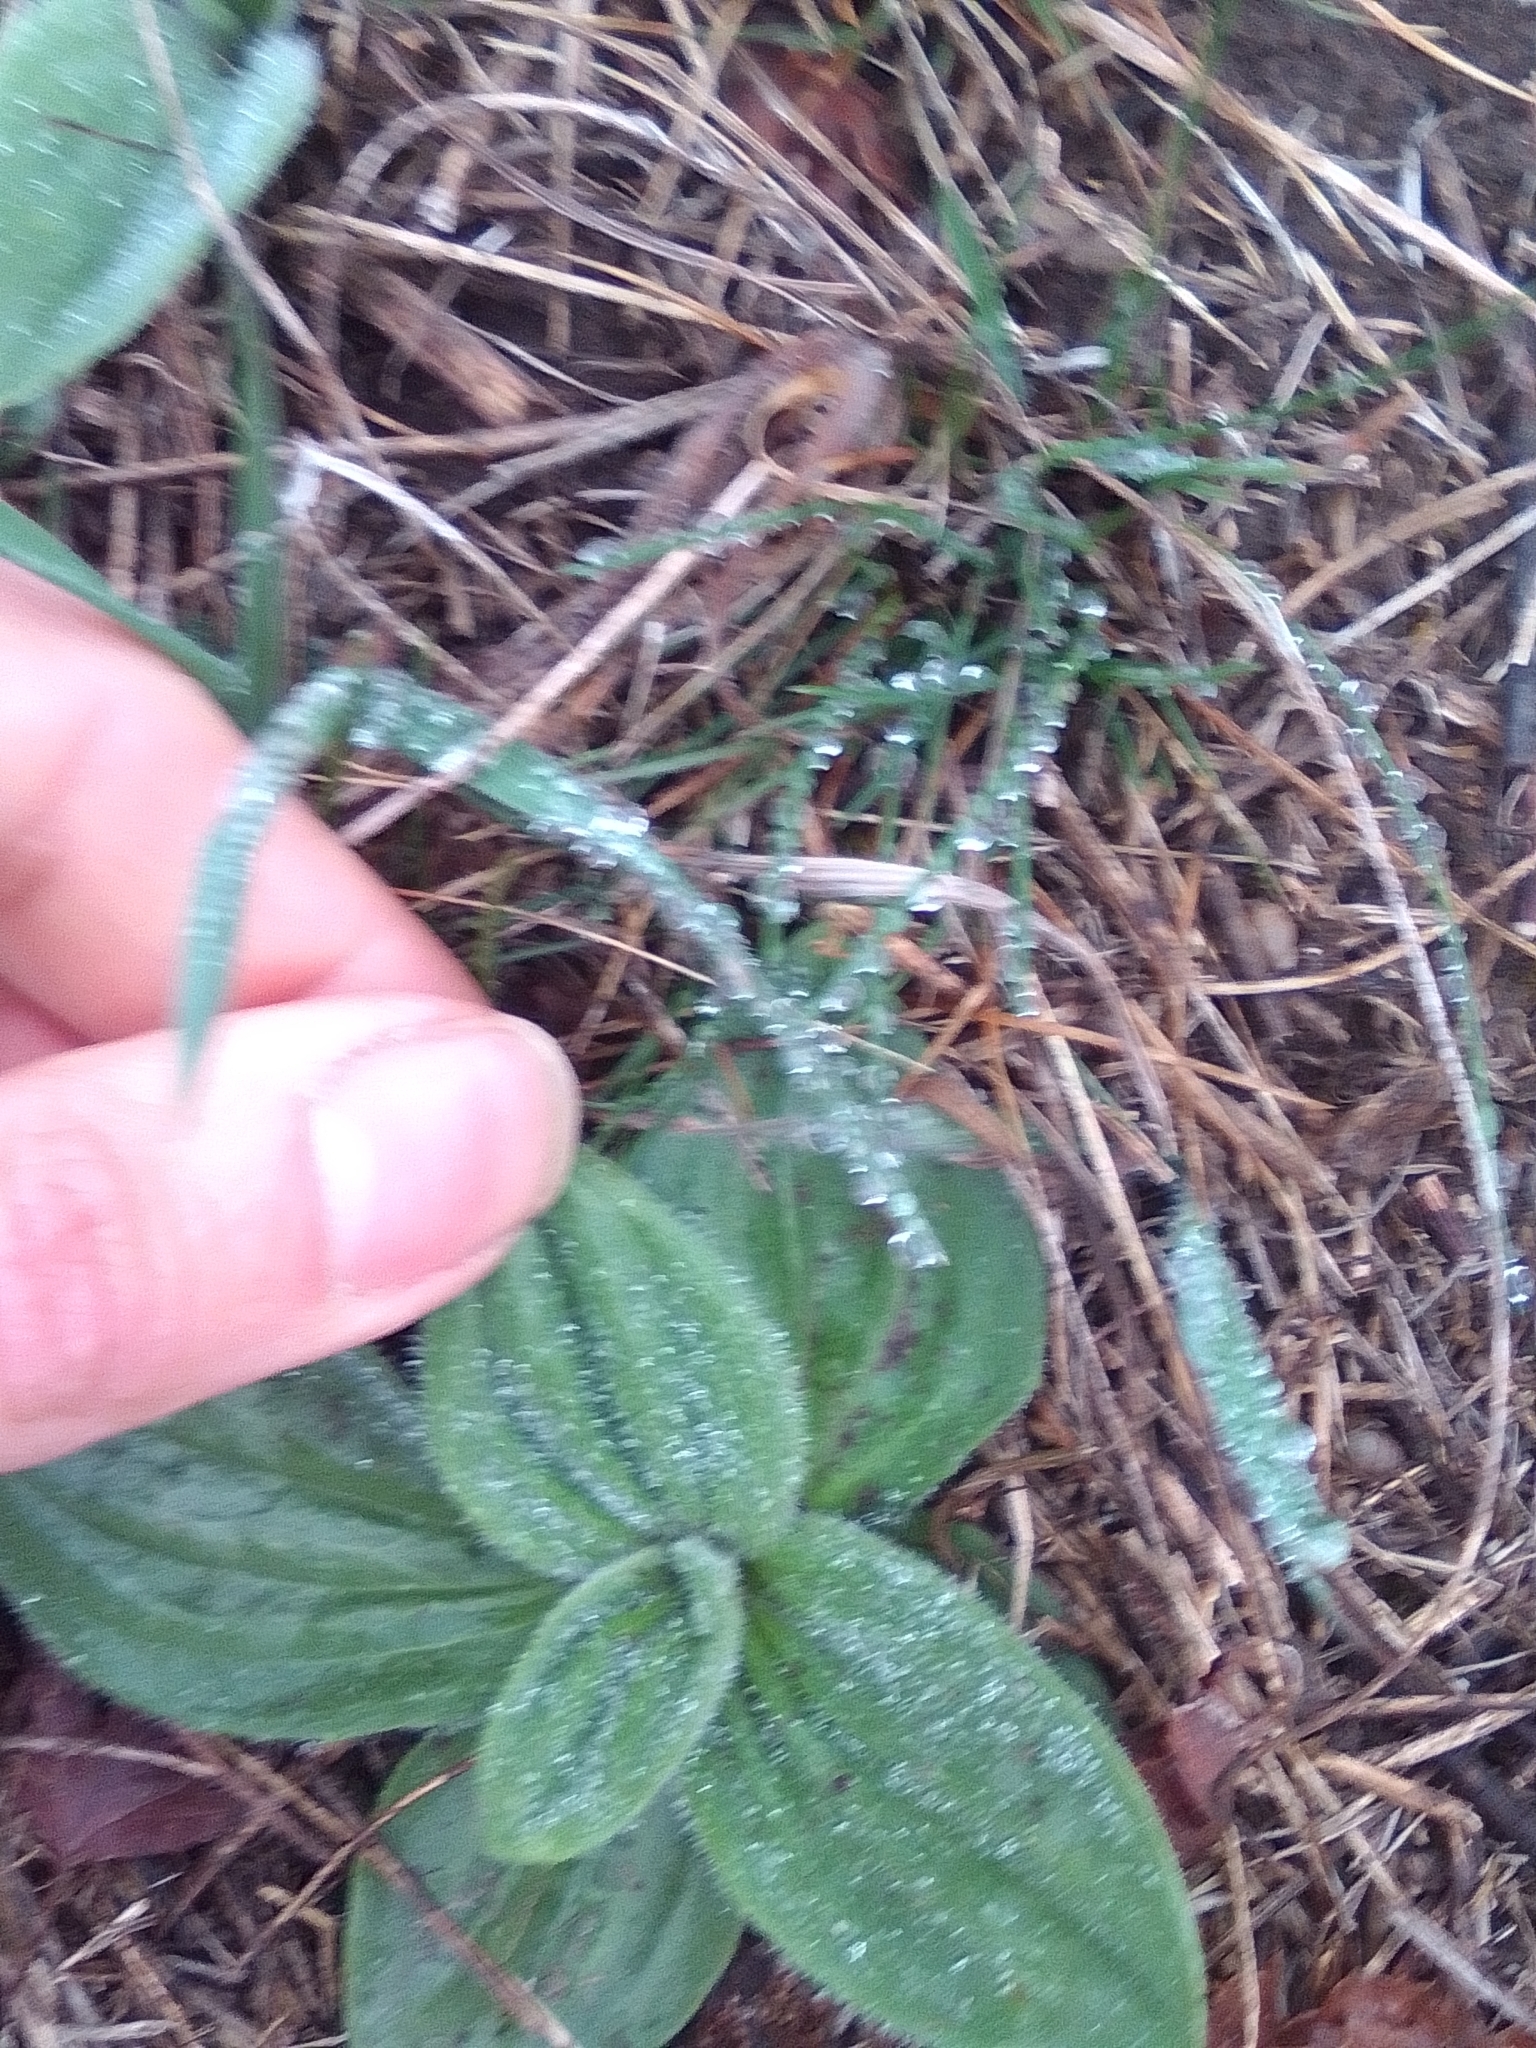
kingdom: Plantae
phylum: Tracheophyta
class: Magnoliopsida
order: Lamiales
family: Plantaginaceae
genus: Plantago
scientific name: Plantago media
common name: Hoary plantain
